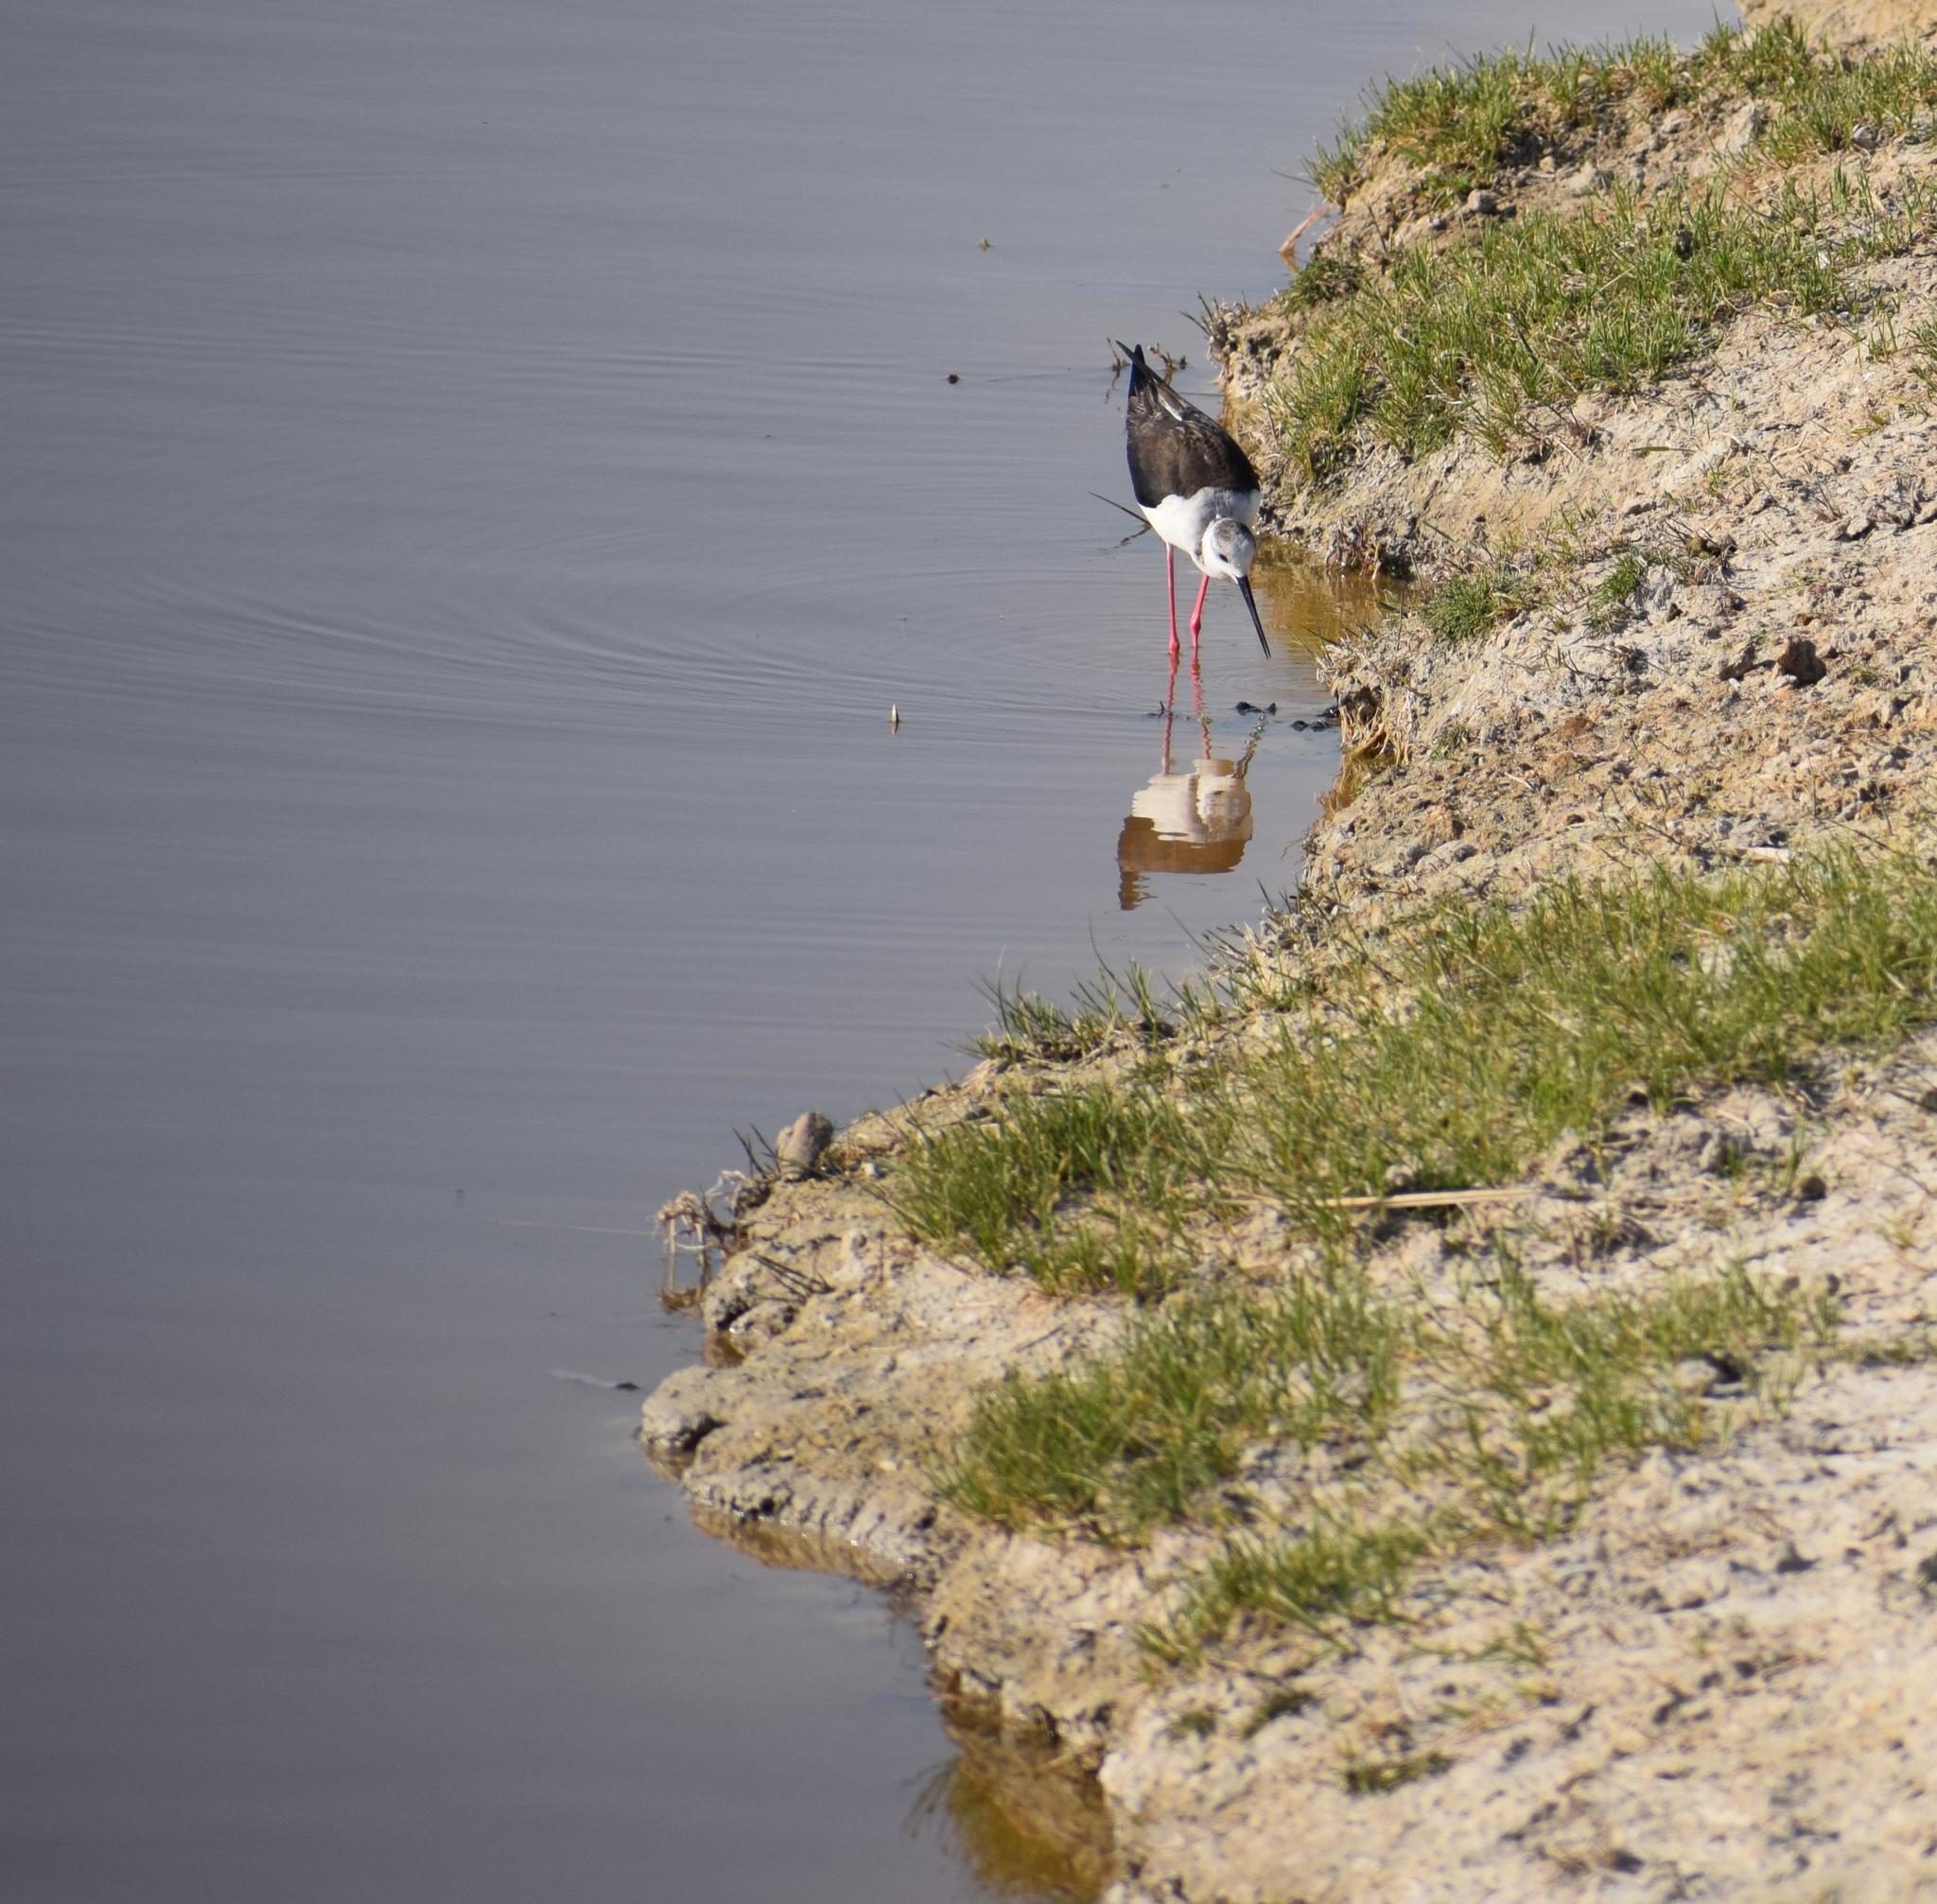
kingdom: Animalia
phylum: Chordata
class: Aves
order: Charadriiformes
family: Recurvirostridae
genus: Himantopus
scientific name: Himantopus himantopus
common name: Black-winged stilt
